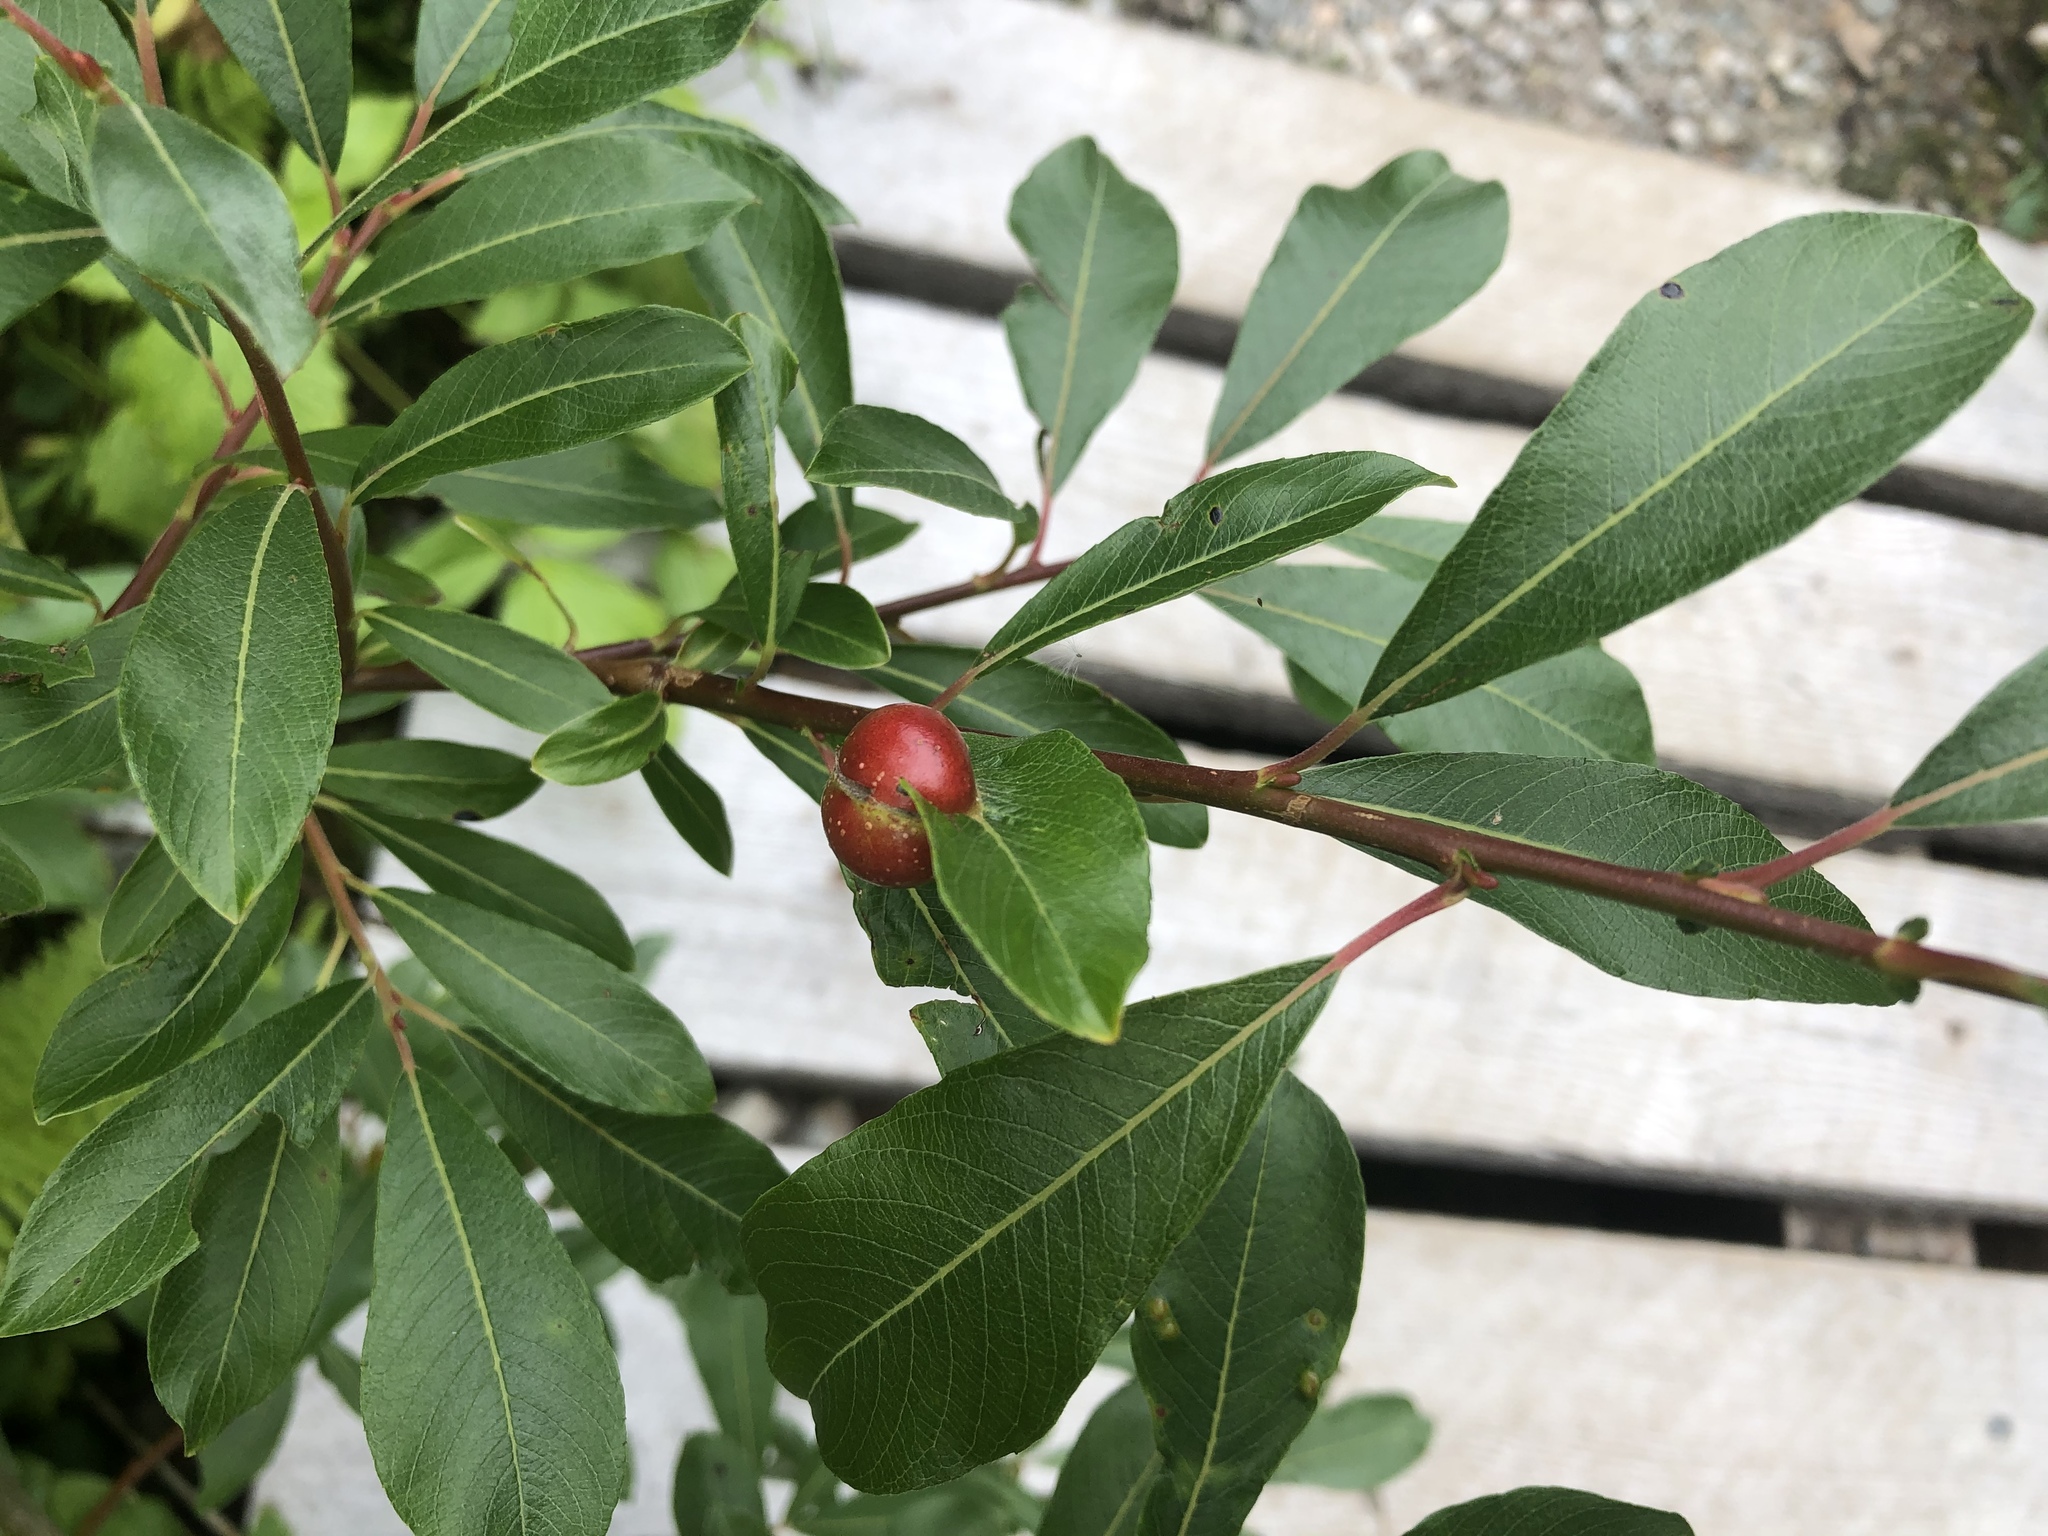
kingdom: Animalia
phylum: Arthropoda
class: Insecta
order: Hymenoptera
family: Tenthredinidae
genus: Euura
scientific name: Euura
